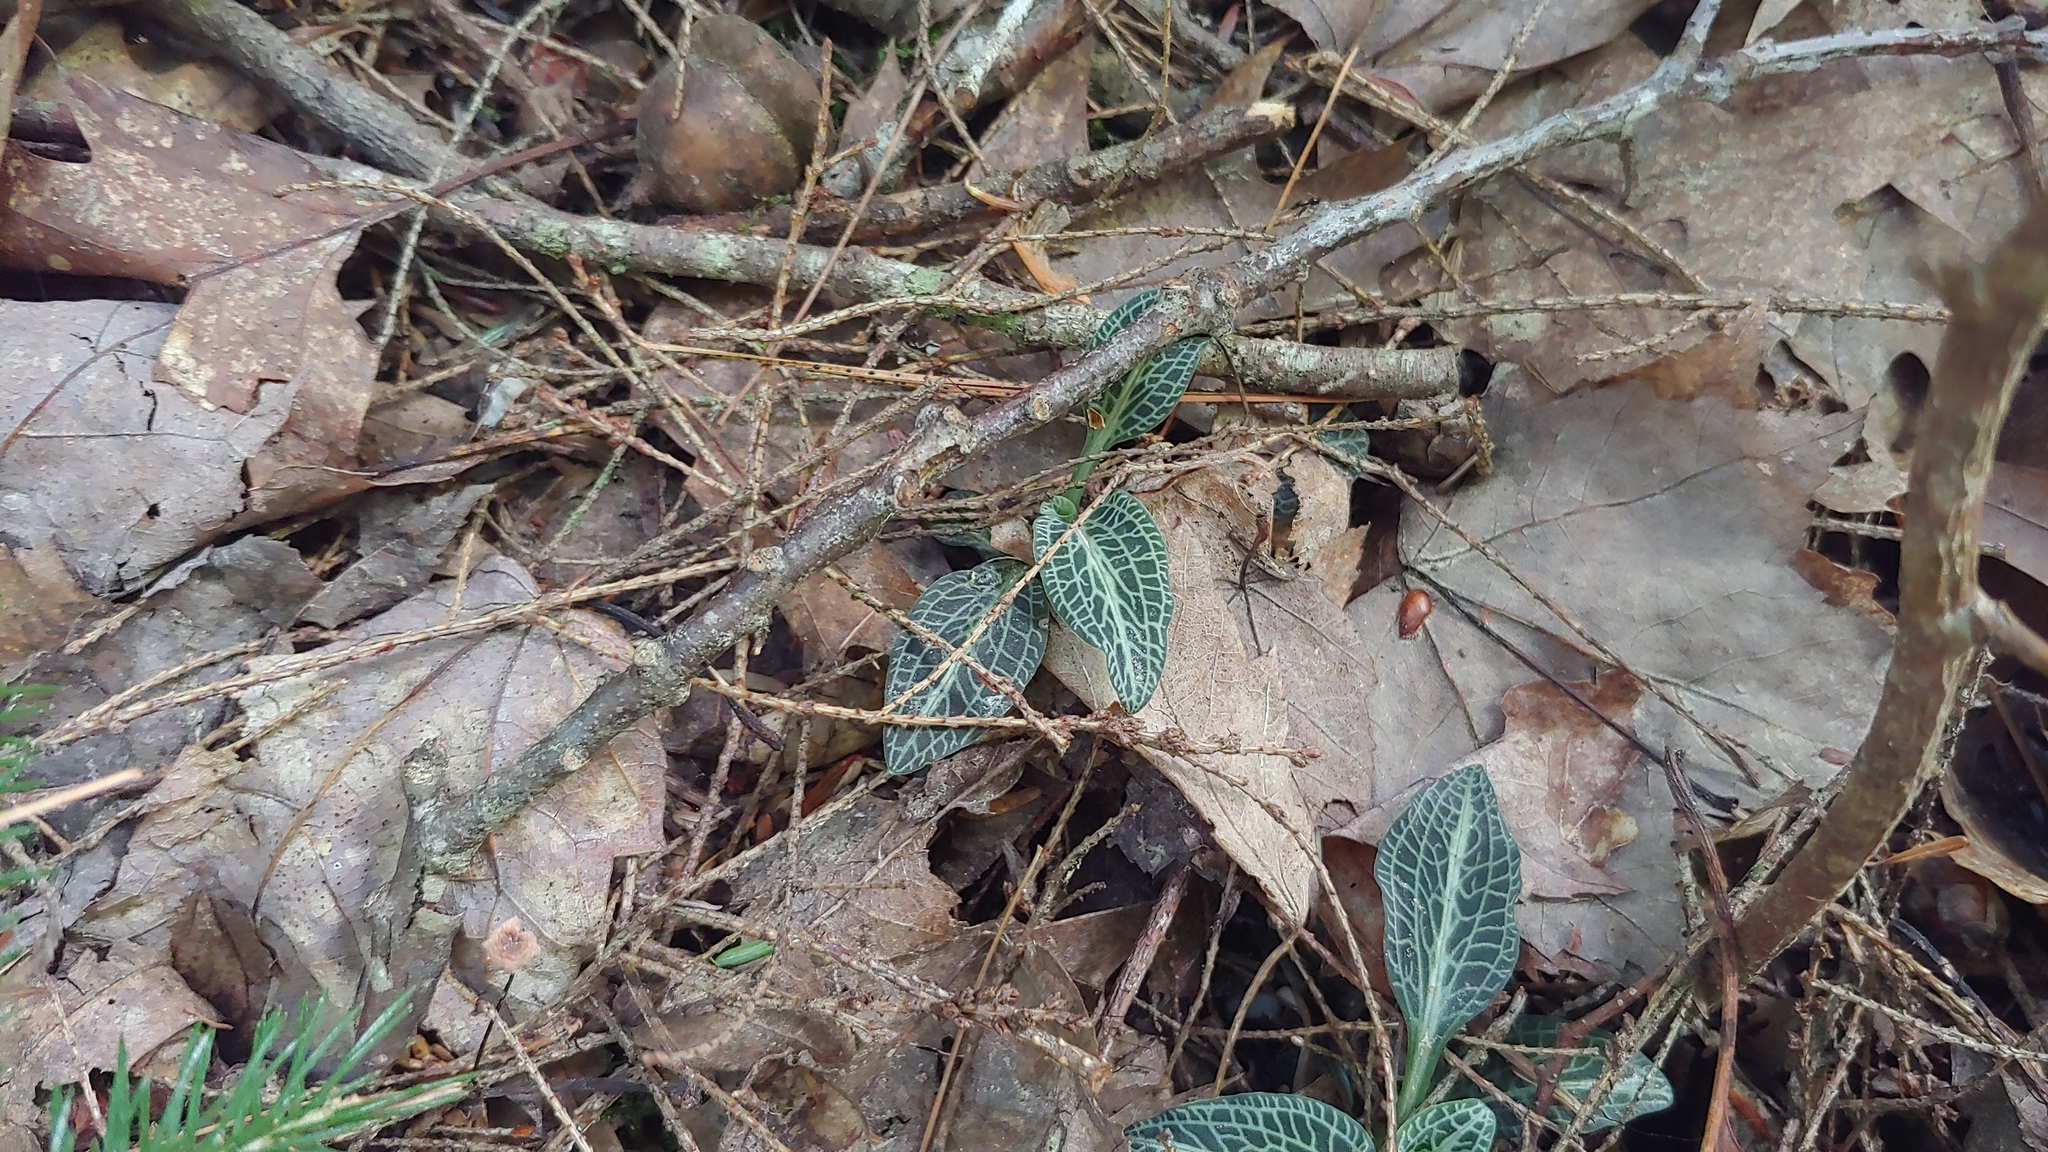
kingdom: Plantae
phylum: Tracheophyta
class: Liliopsida
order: Asparagales
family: Orchidaceae
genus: Goodyera
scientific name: Goodyera pubescens
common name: Downy rattlesnake-plantain
